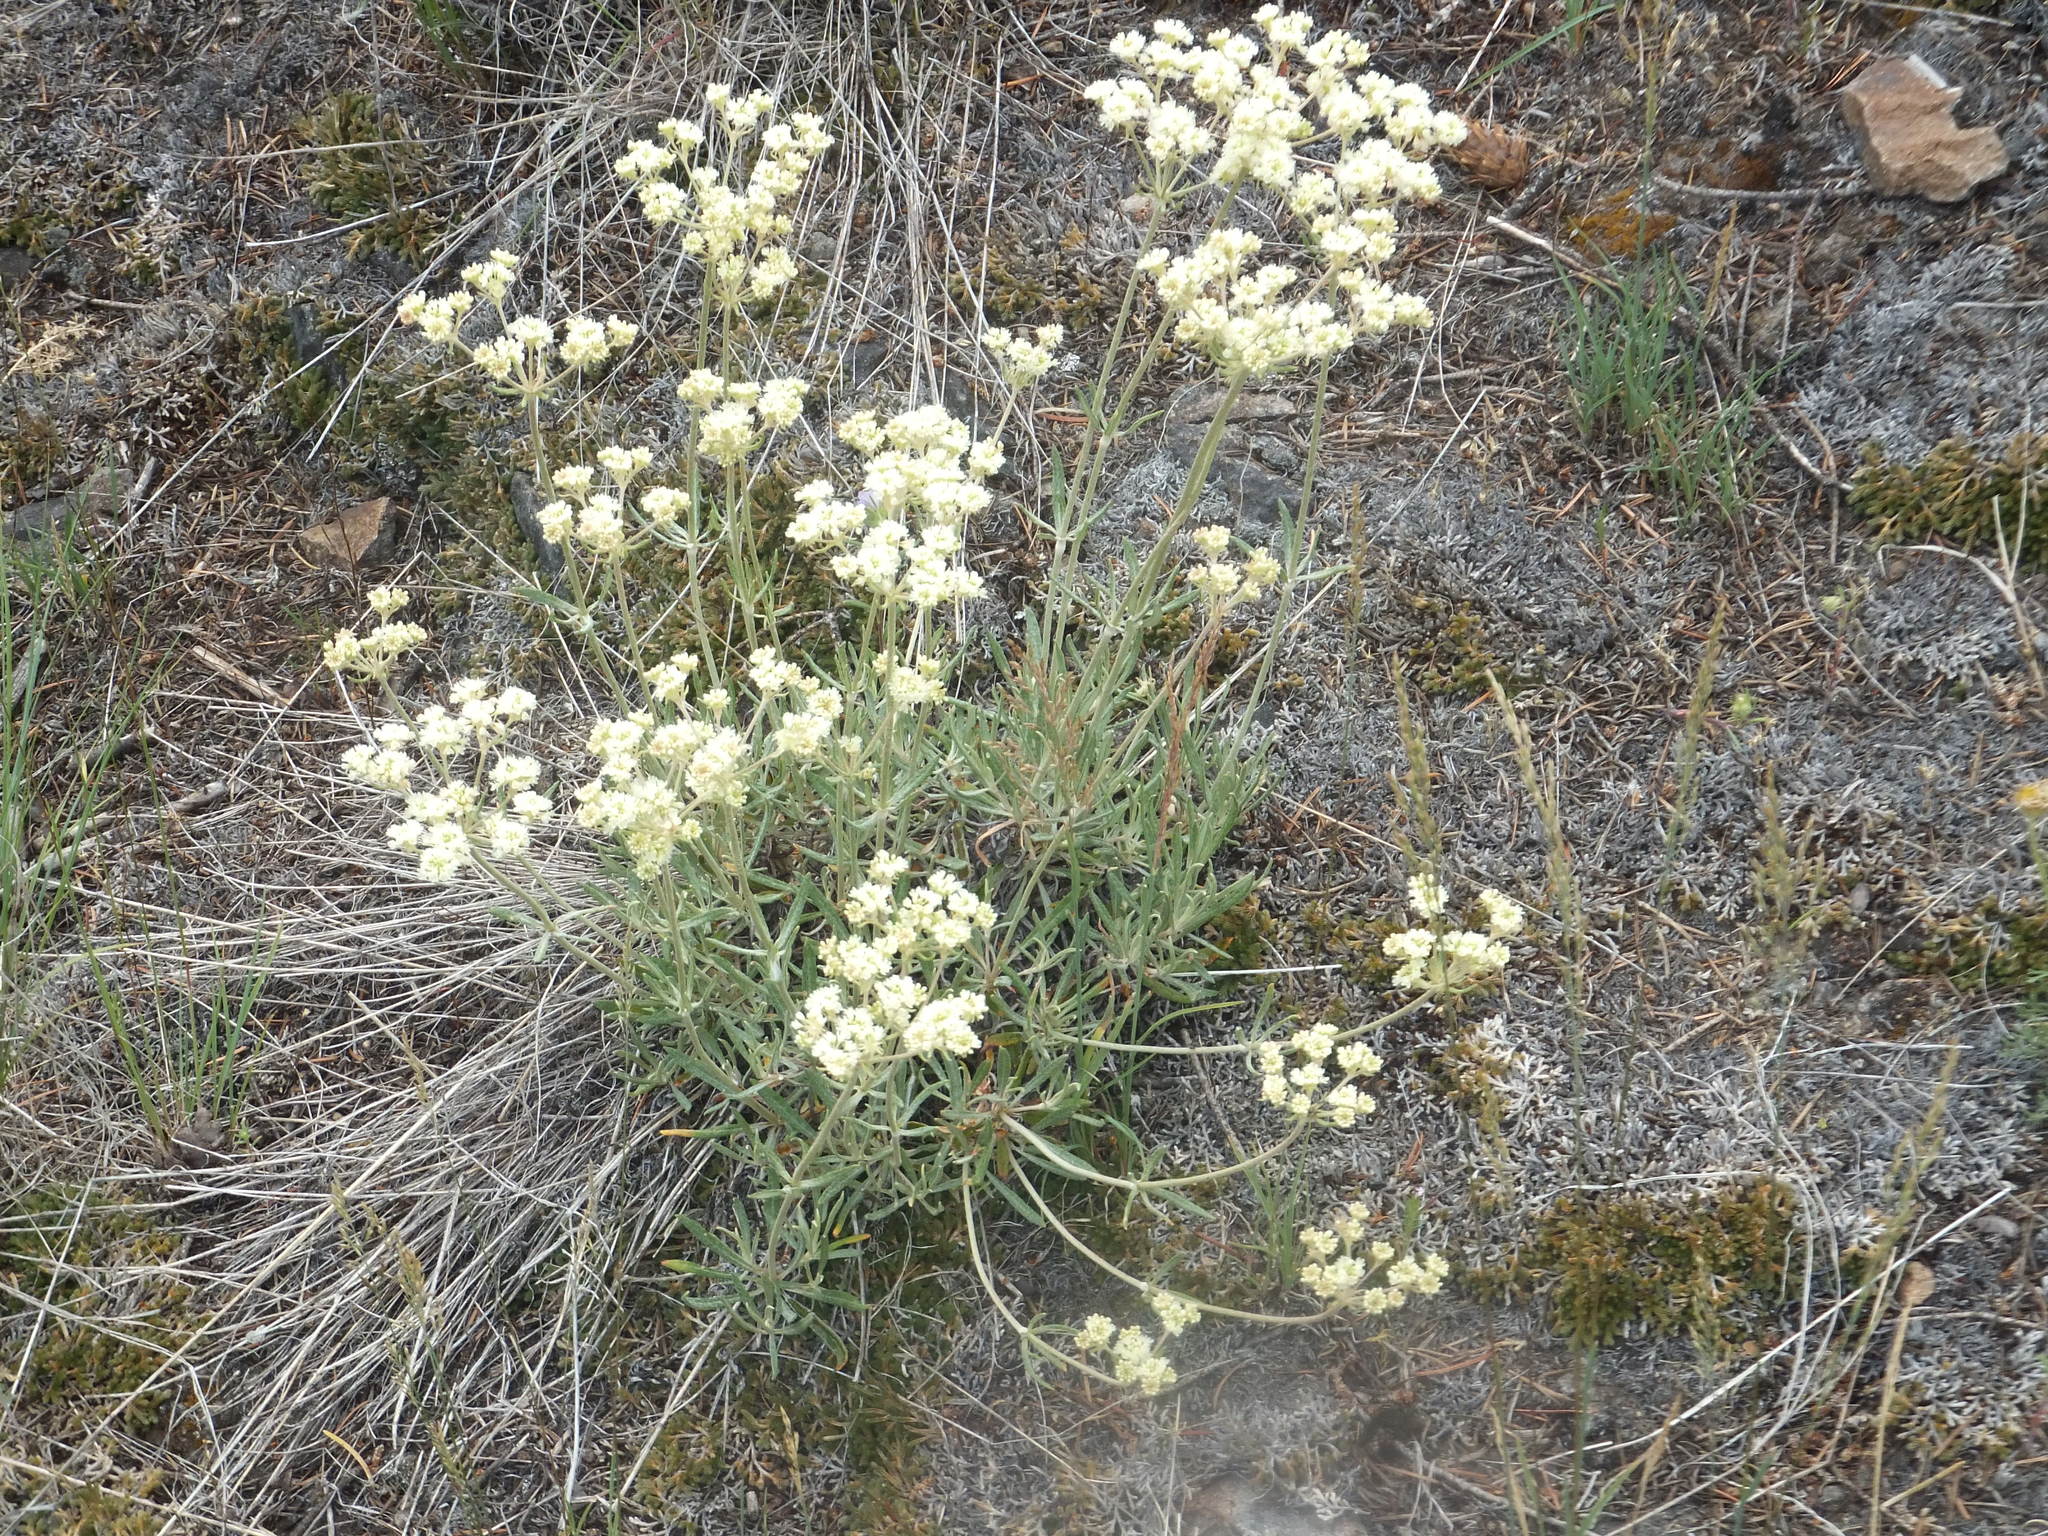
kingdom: Plantae
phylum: Tracheophyta
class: Magnoliopsida
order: Caryophyllales
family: Polygonaceae
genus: Eriogonum
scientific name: Eriogonum heracleoides
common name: Wyeth's buckwheat
